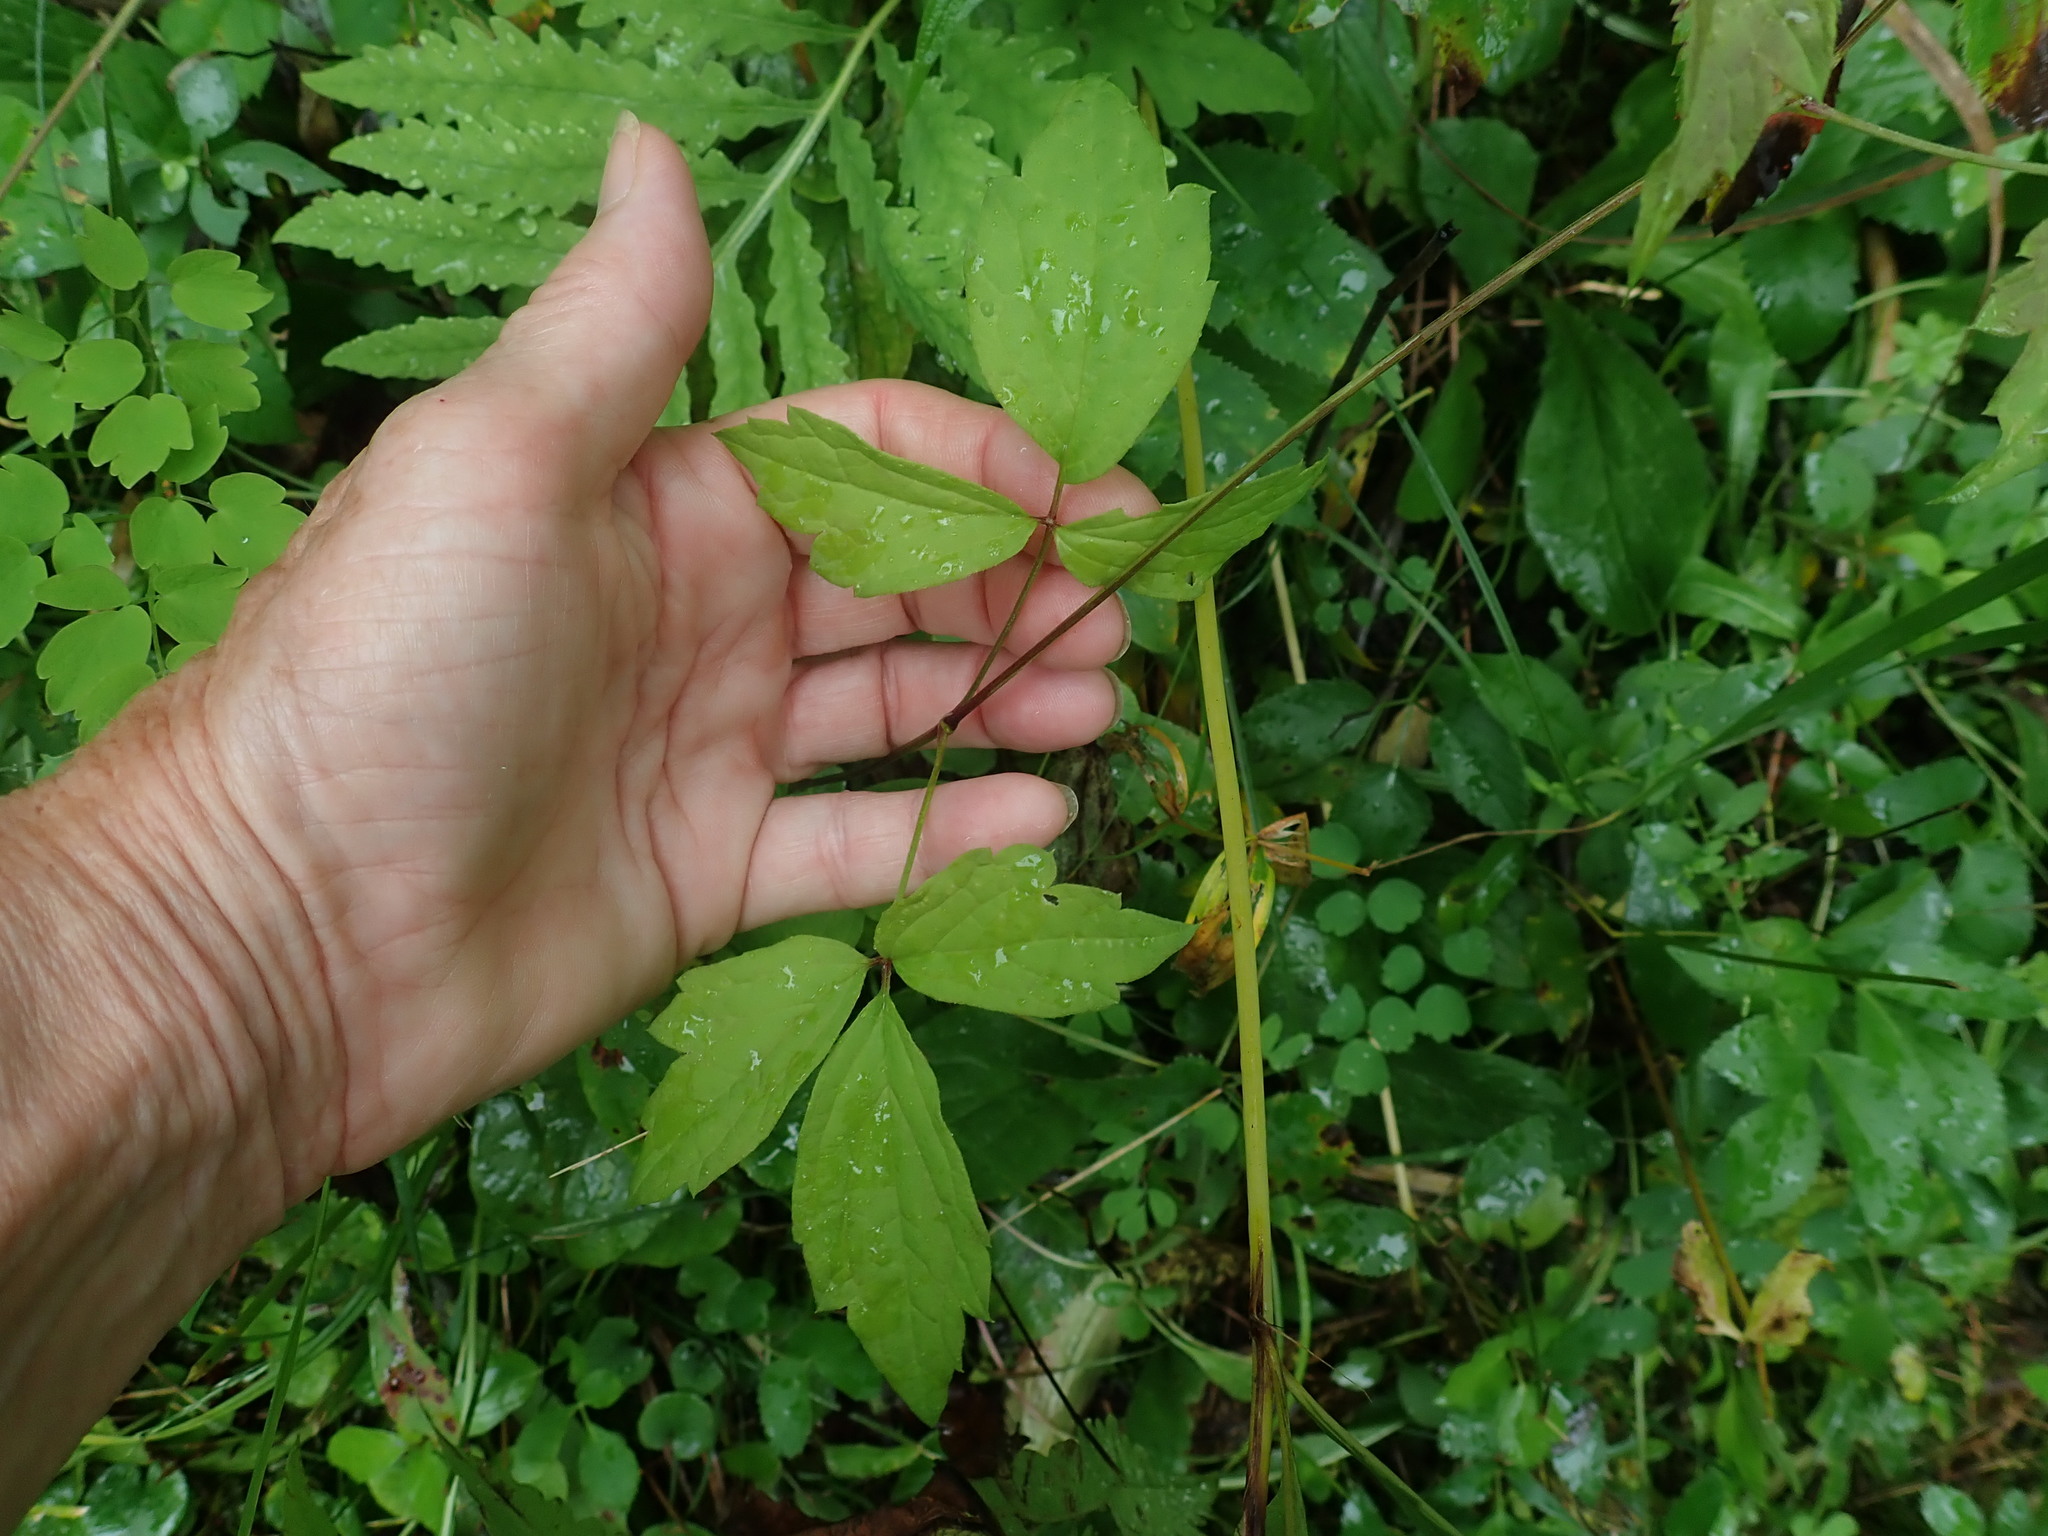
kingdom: Plantae
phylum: Tracheophyta
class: Magnoliopsida
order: Ranunculales
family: Ranunculaceae
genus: Clematis
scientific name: Clematis virginiana
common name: Virgin's-bower
